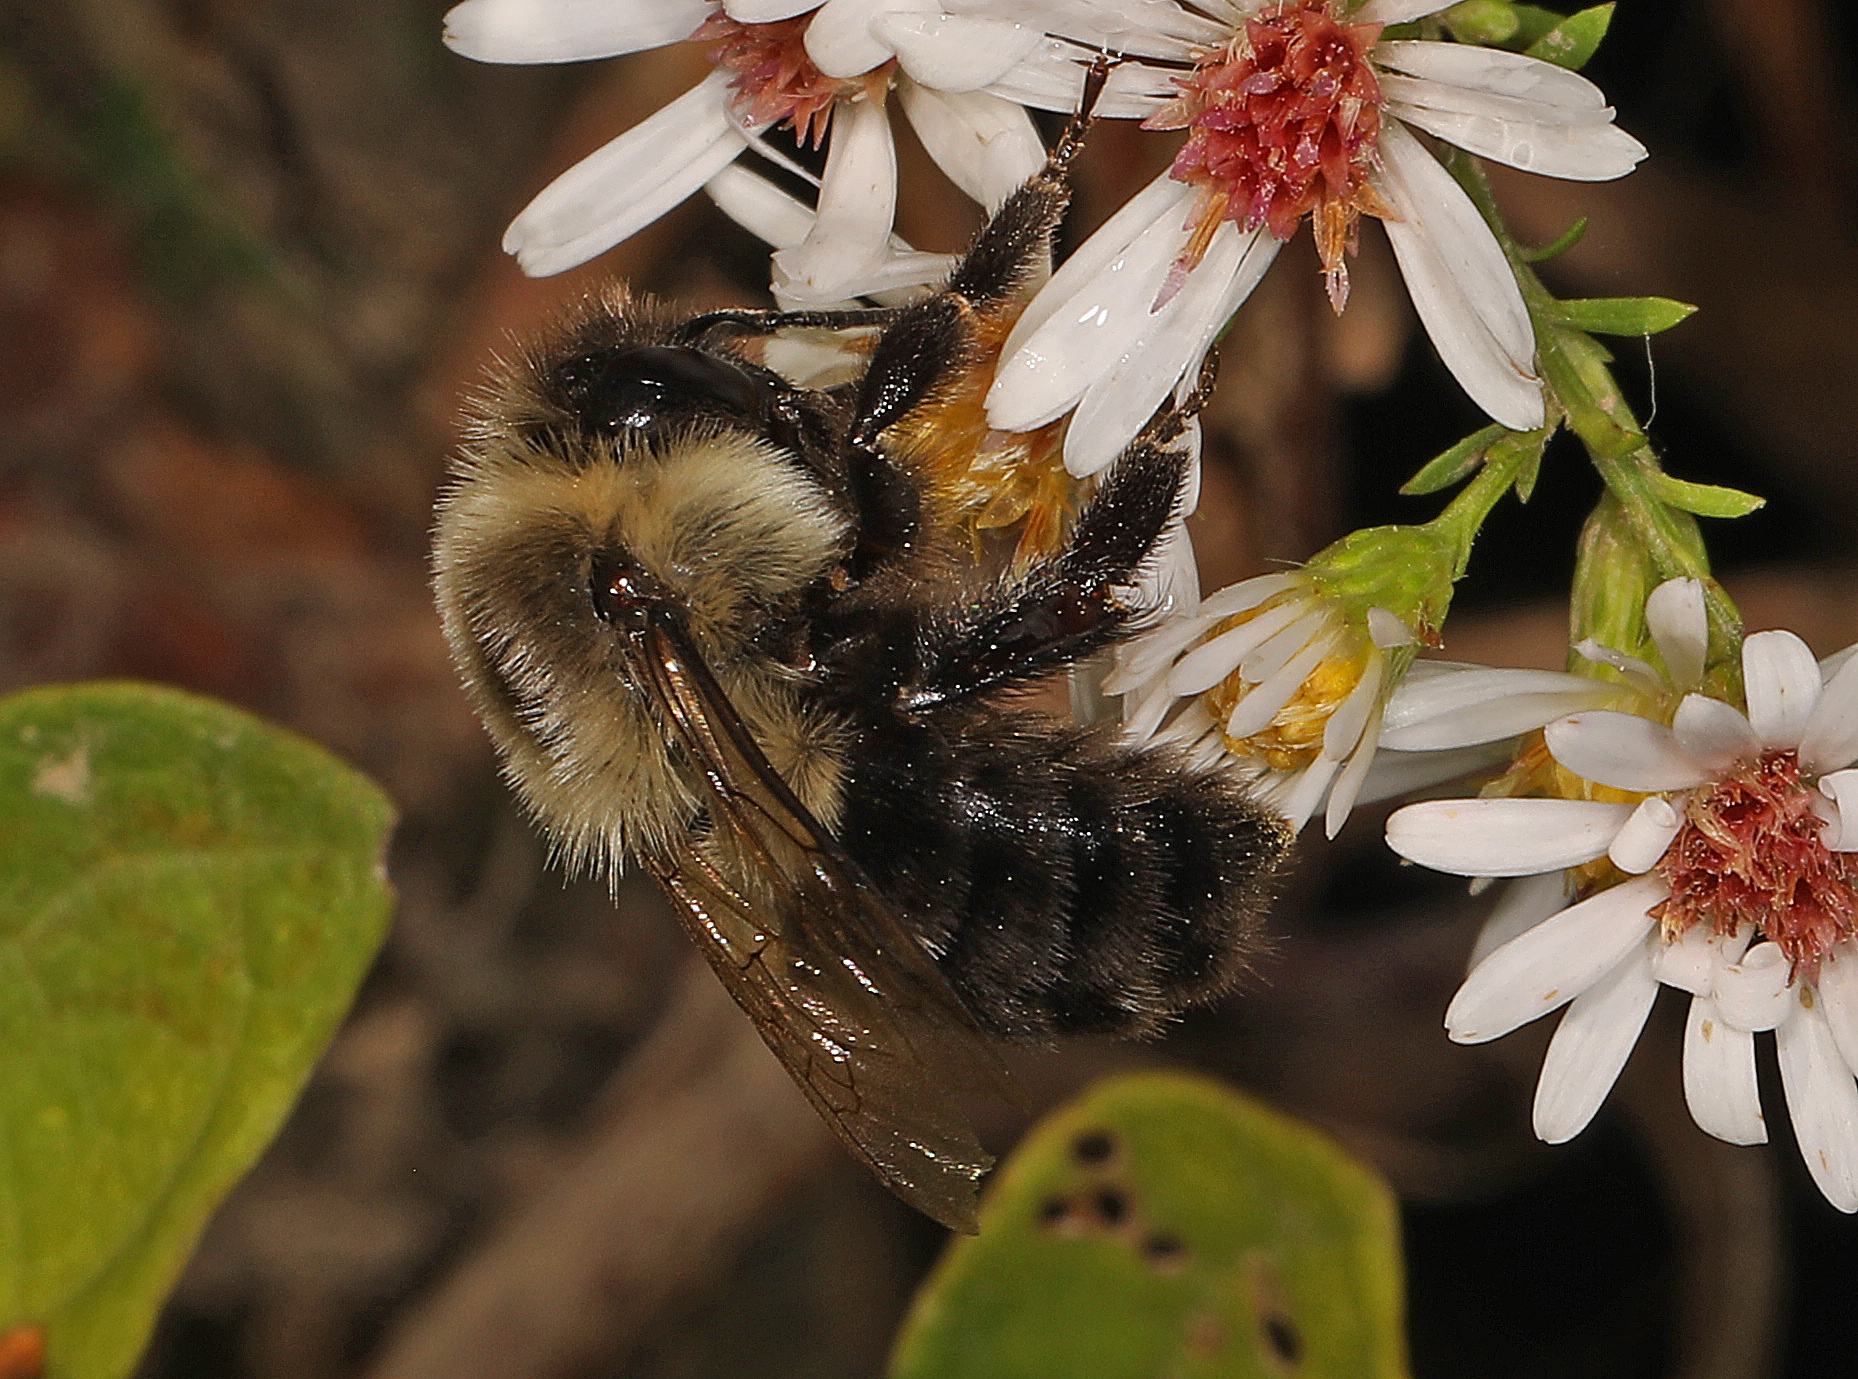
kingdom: Animalia
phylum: Arthropoda
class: Insecta
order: Hymenoptera
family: Apidae
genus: Bombus
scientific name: Bombus impatiens
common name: Common eastern bumble bee
